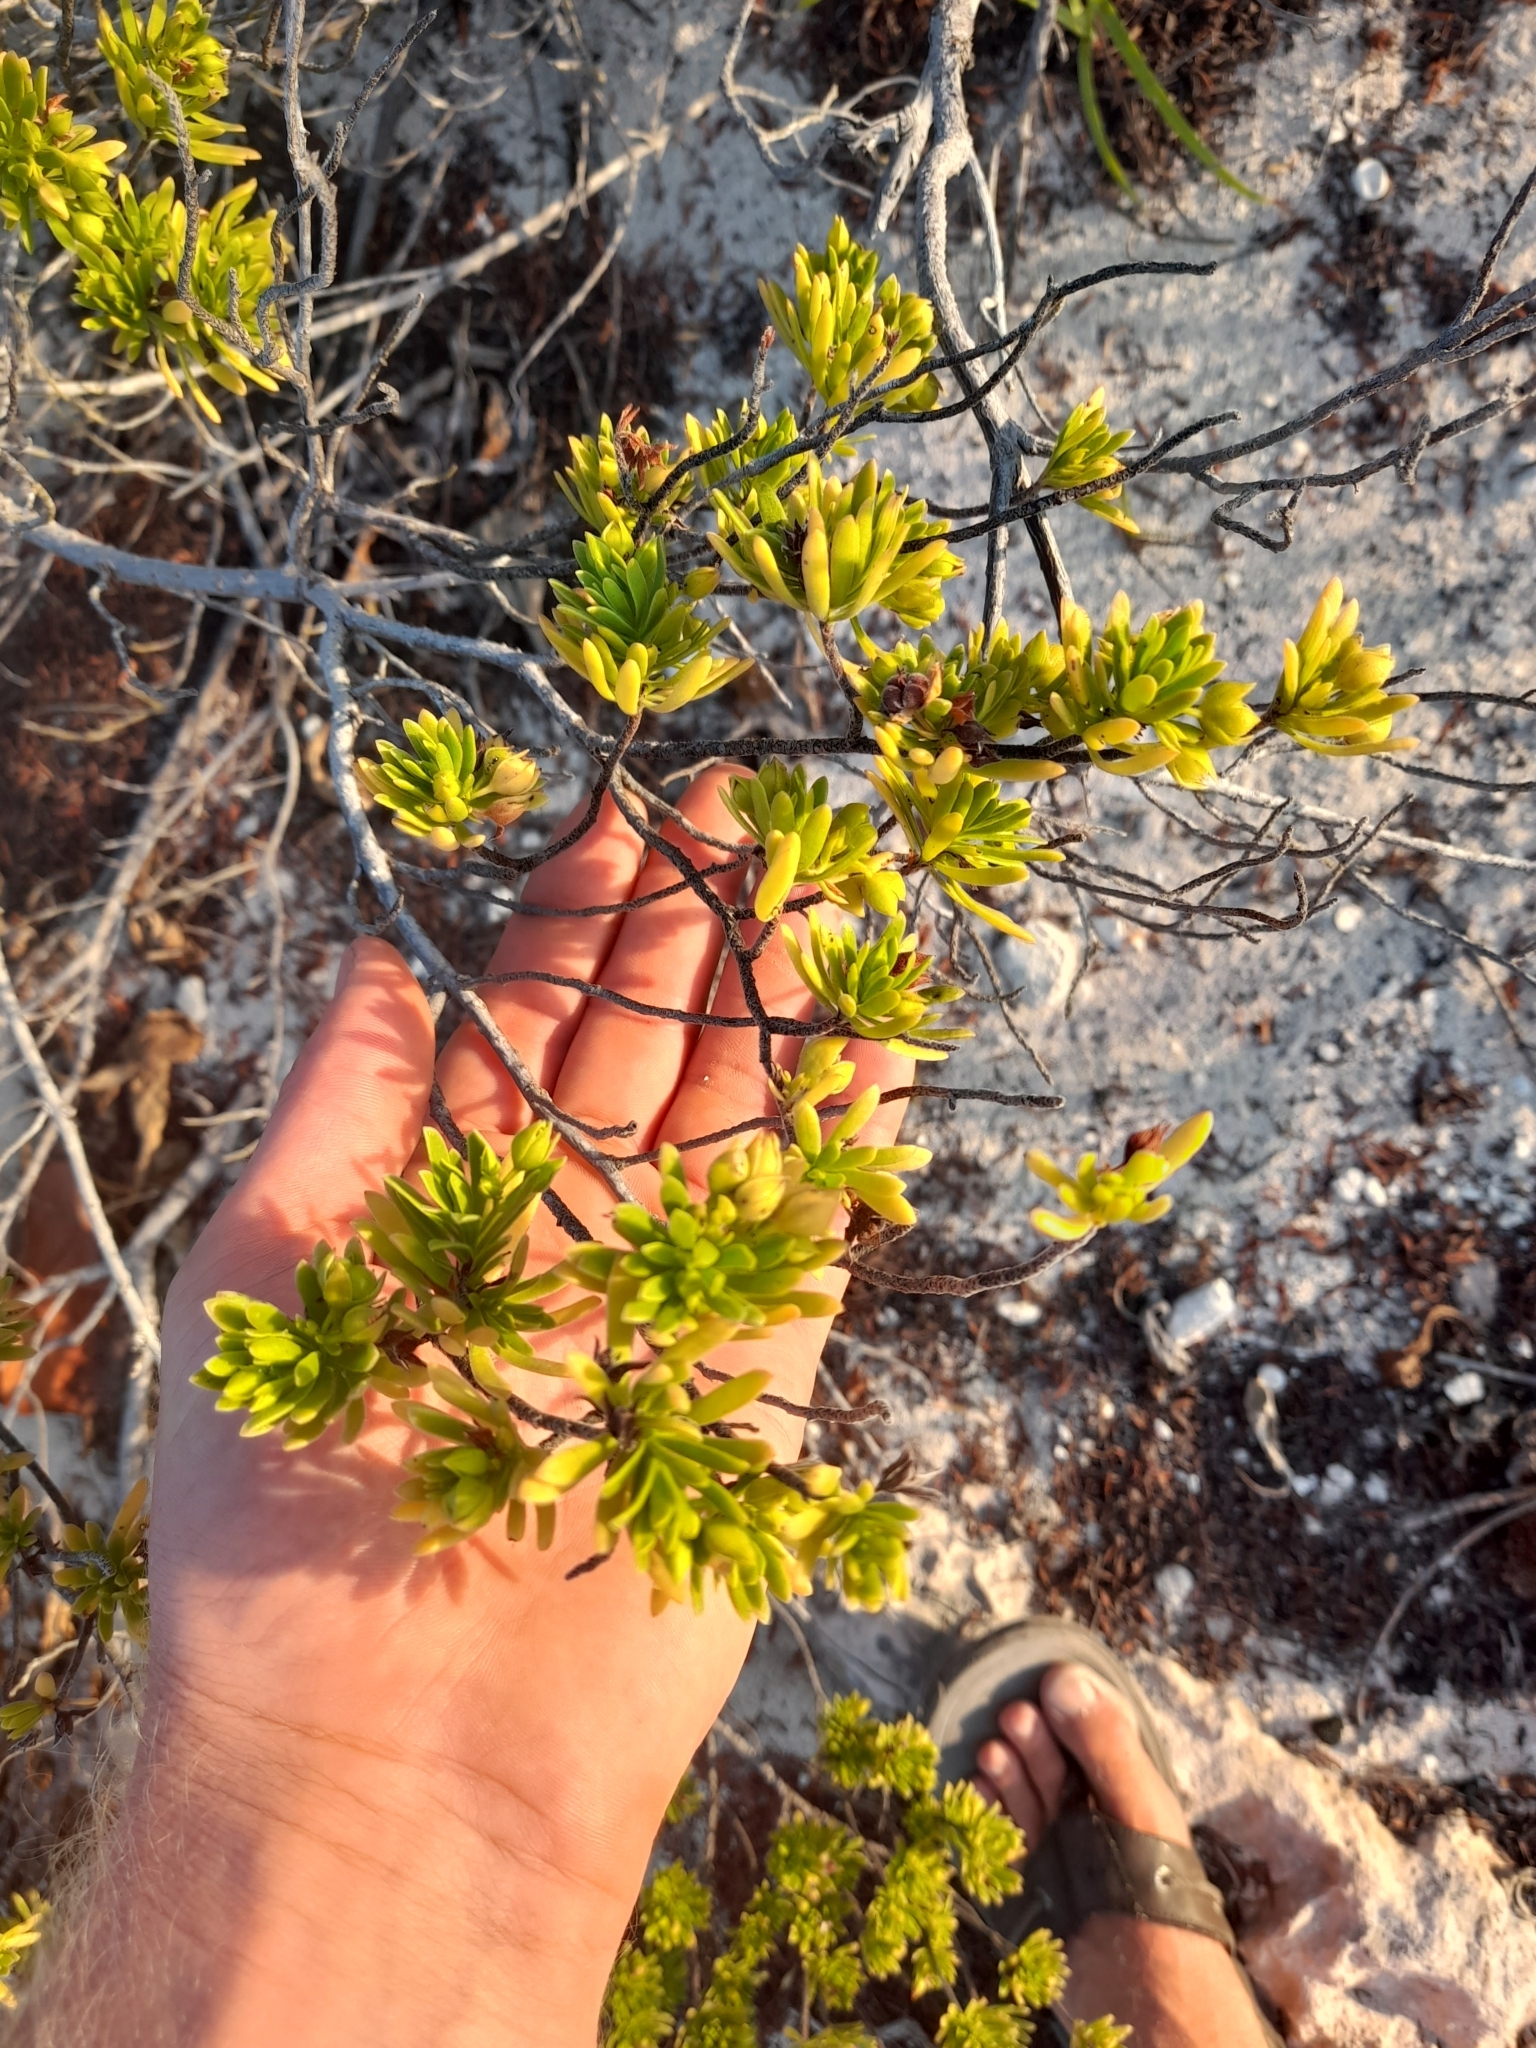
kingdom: Plantae
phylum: Tracheophyta
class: Magnoliopsida
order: Fabales
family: Surianaceae
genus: Suriana
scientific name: Suriana maritima
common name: Bay-cedar
